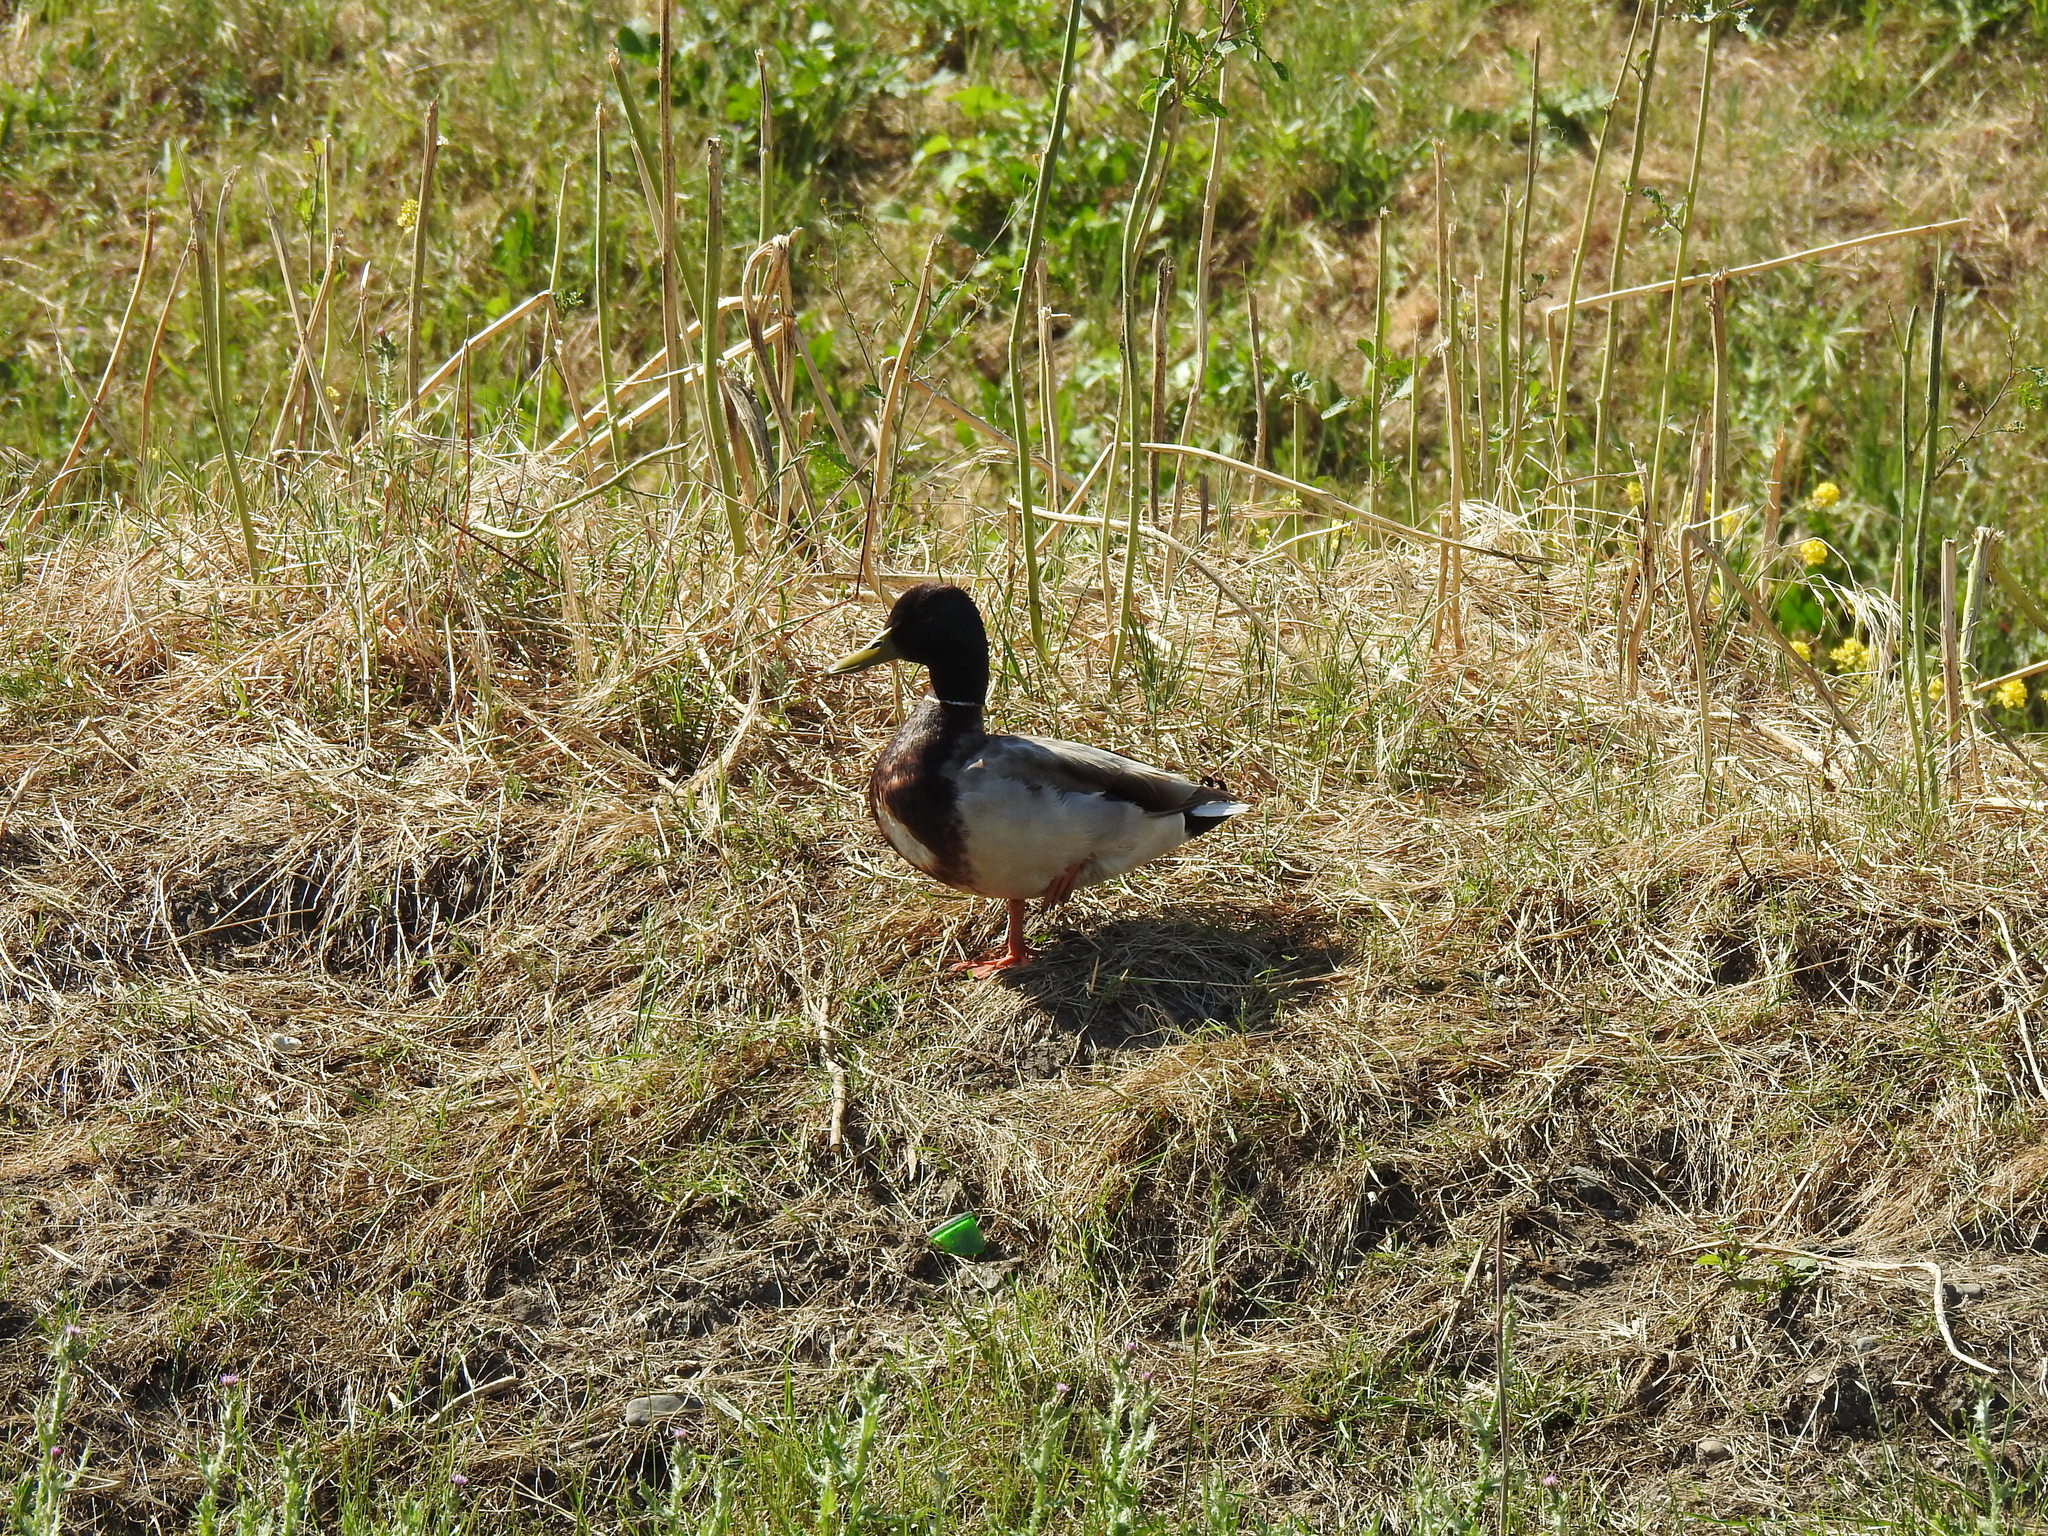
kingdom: Animalia
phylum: Chordata
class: Aves
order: Anseriformes
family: Anatidae
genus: Anas
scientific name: Anas platyrhynchos
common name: Mallard
